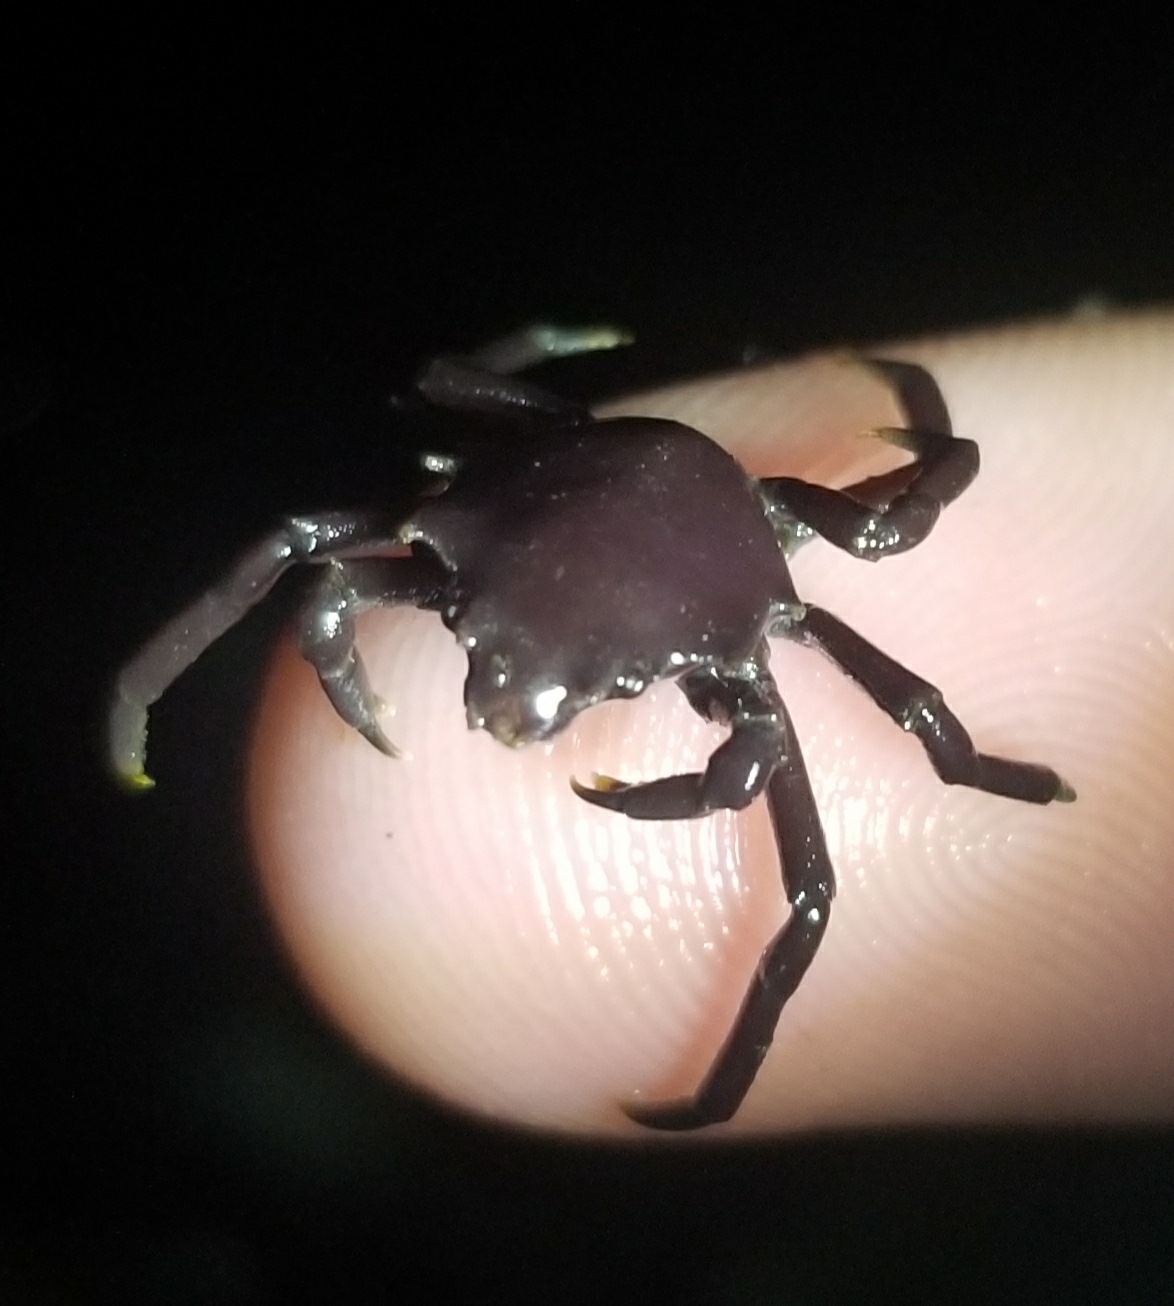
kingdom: Animalia
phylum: Arthropoda
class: Malacostraca
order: Decapoda
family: Epialtidae
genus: Pugettia
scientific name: Pugettia producta
